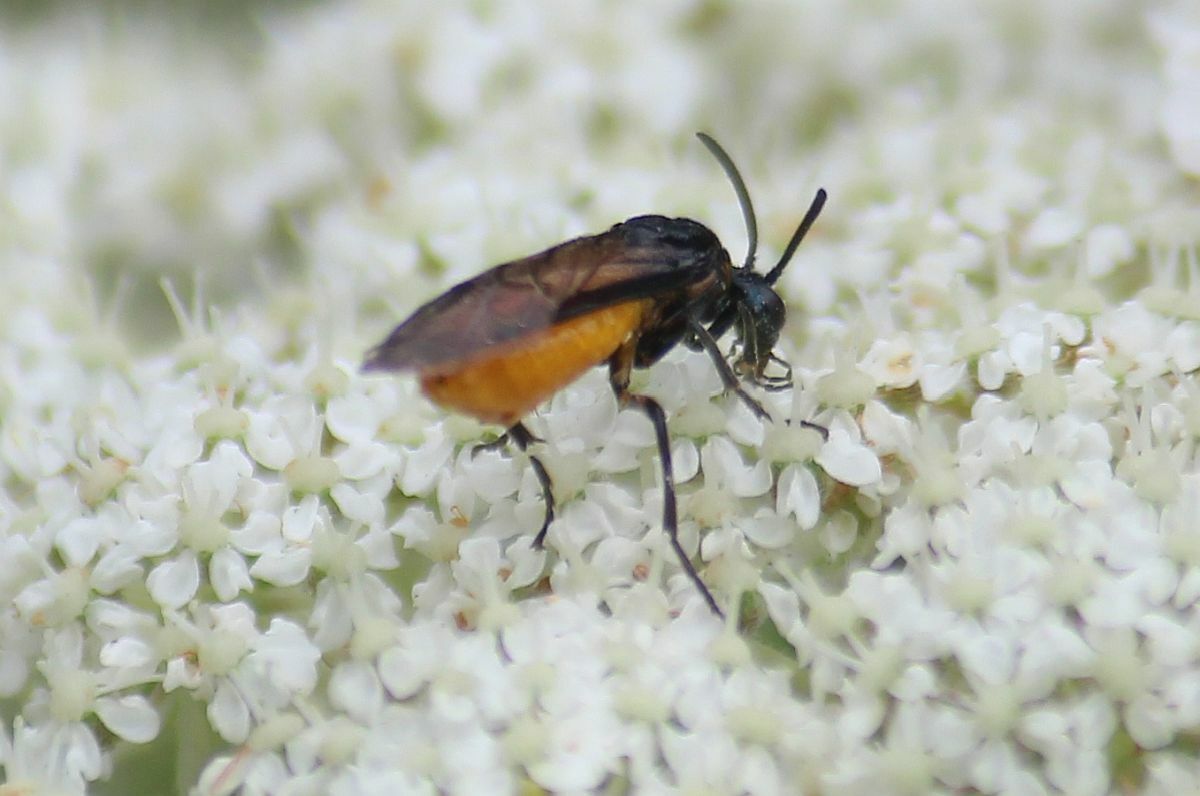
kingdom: Animalia
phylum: Arthropoda
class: Insecta
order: Hymenoptera
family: Argidae
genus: Arge
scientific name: Arge pagana
